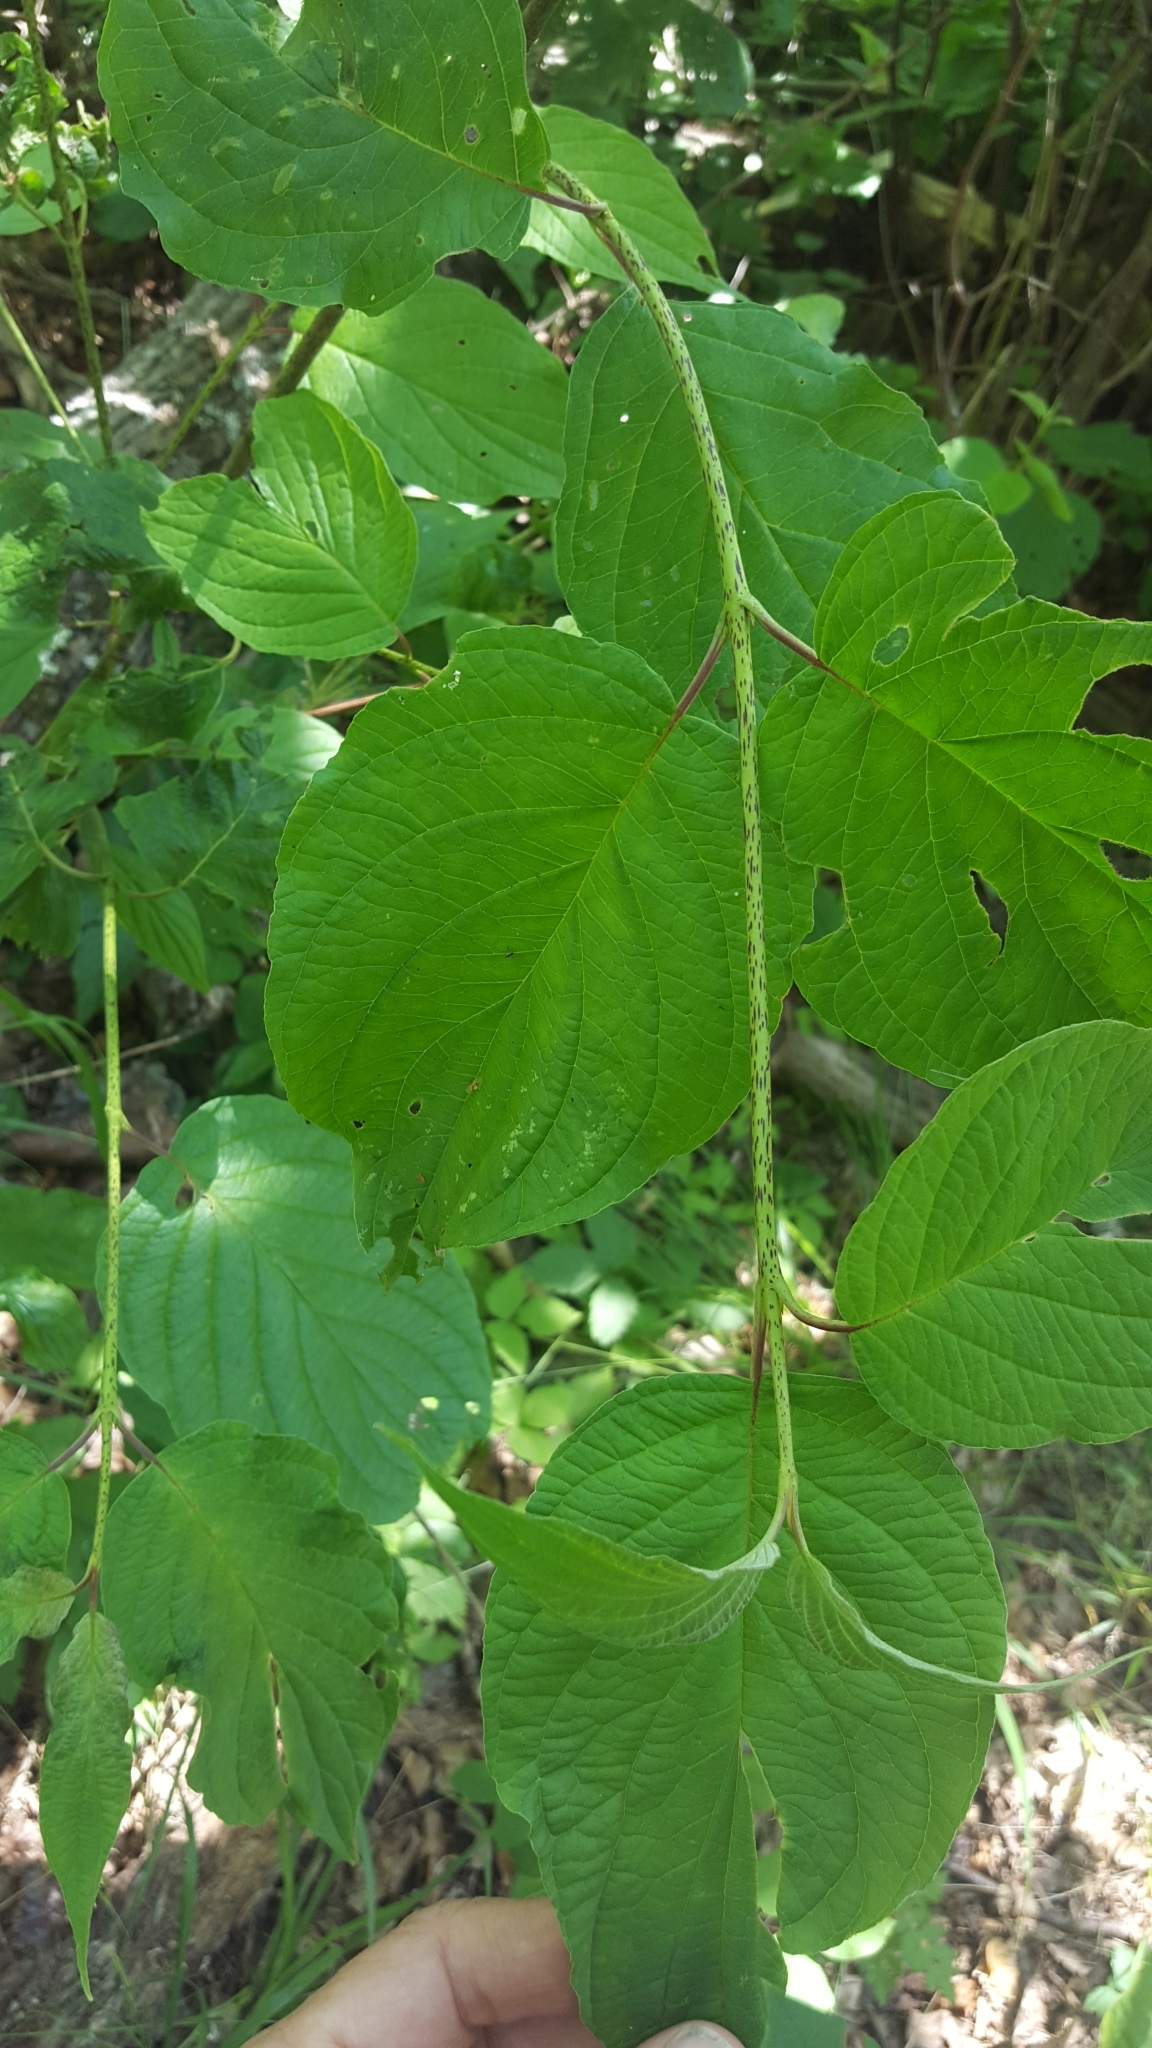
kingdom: Plantae
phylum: Tracheophyta
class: Magnoliopsida
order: Cornales
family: Cornaceae
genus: Cornus
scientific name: Cornus rugosa
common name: Round-leaf dogwood
